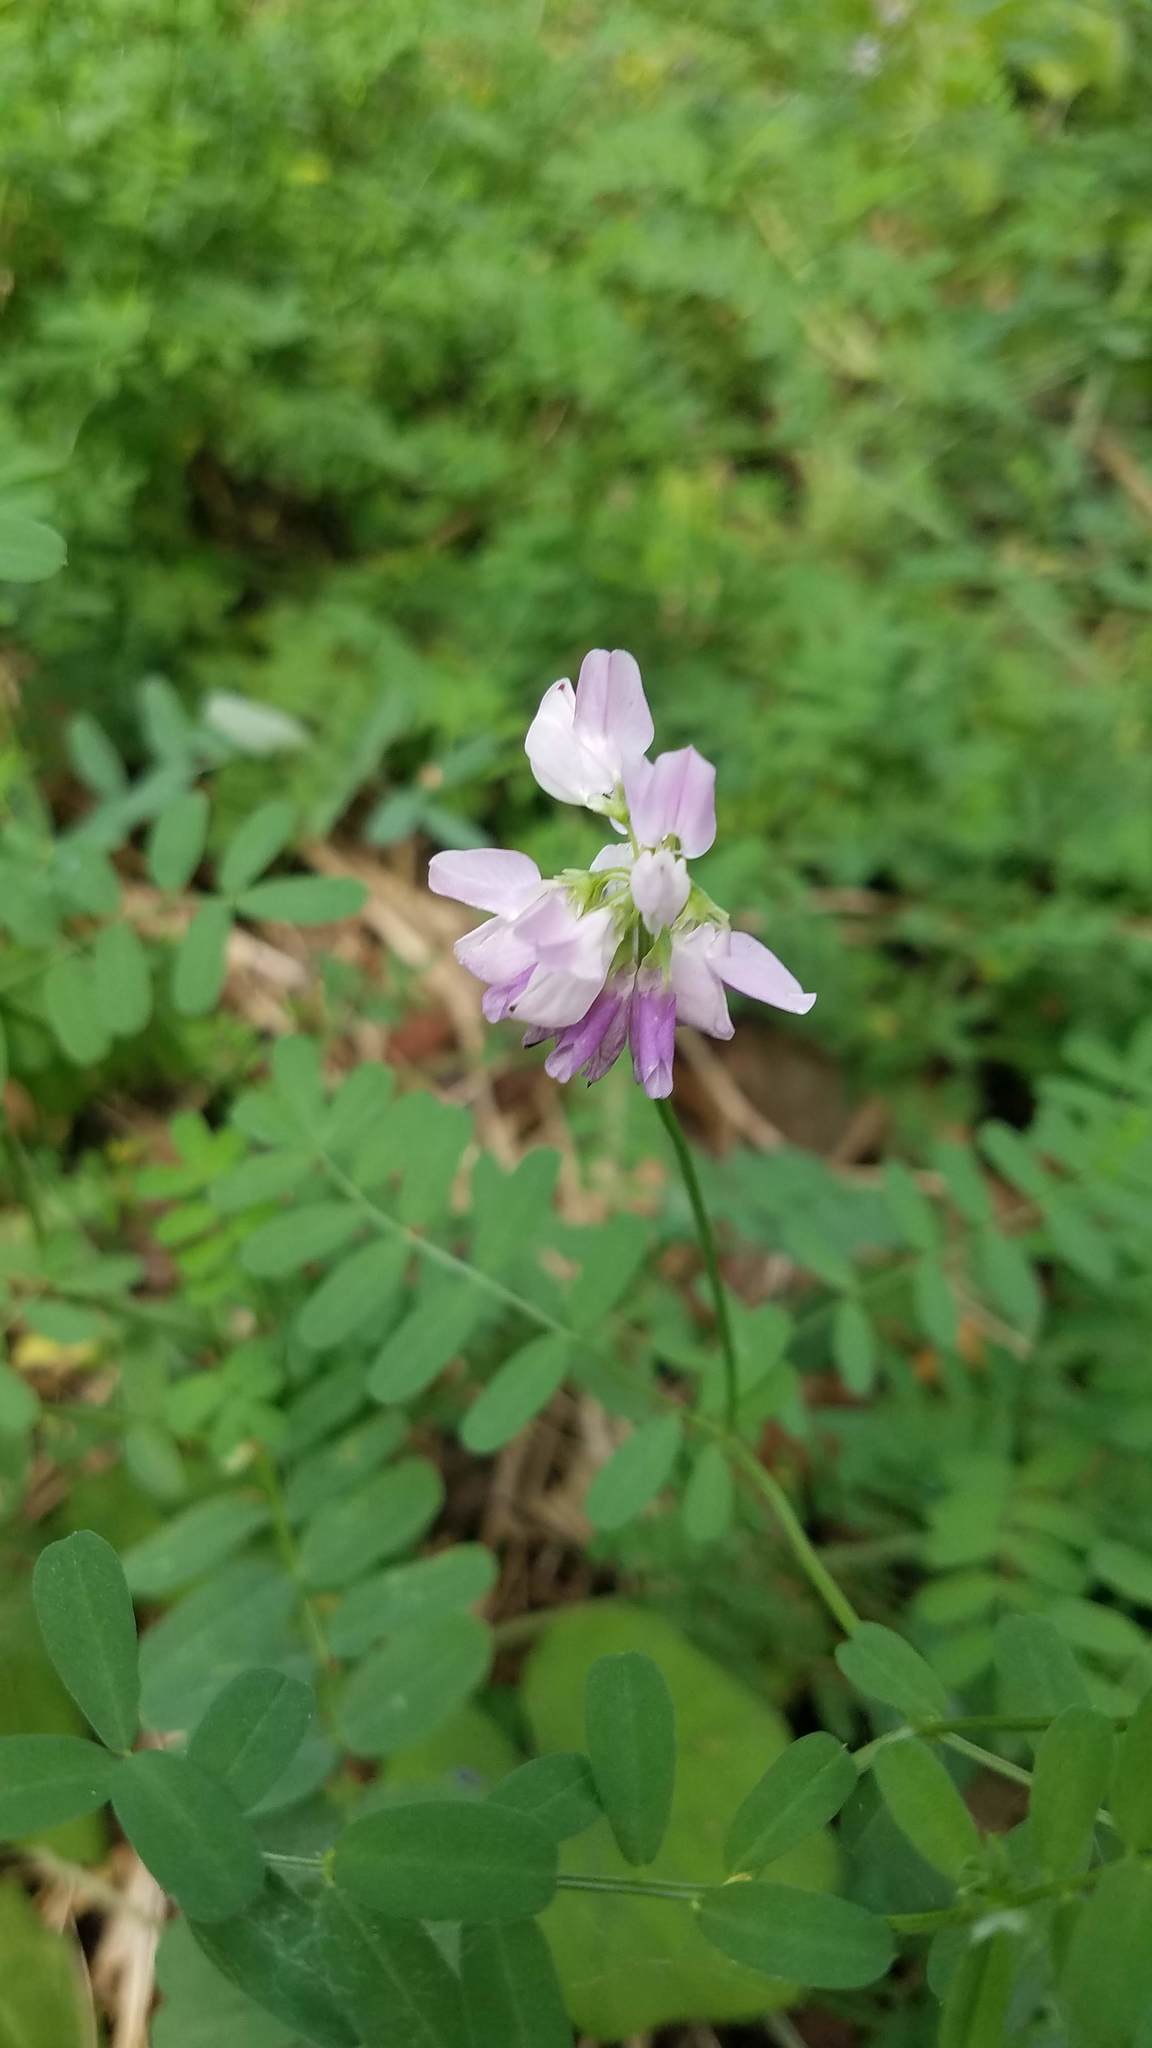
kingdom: Plantae
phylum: Tracheophyta
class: Magnoliopsida
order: Fabales
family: Fabaceae
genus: Coronilla
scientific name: Coronilla varia
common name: Crownvetch
